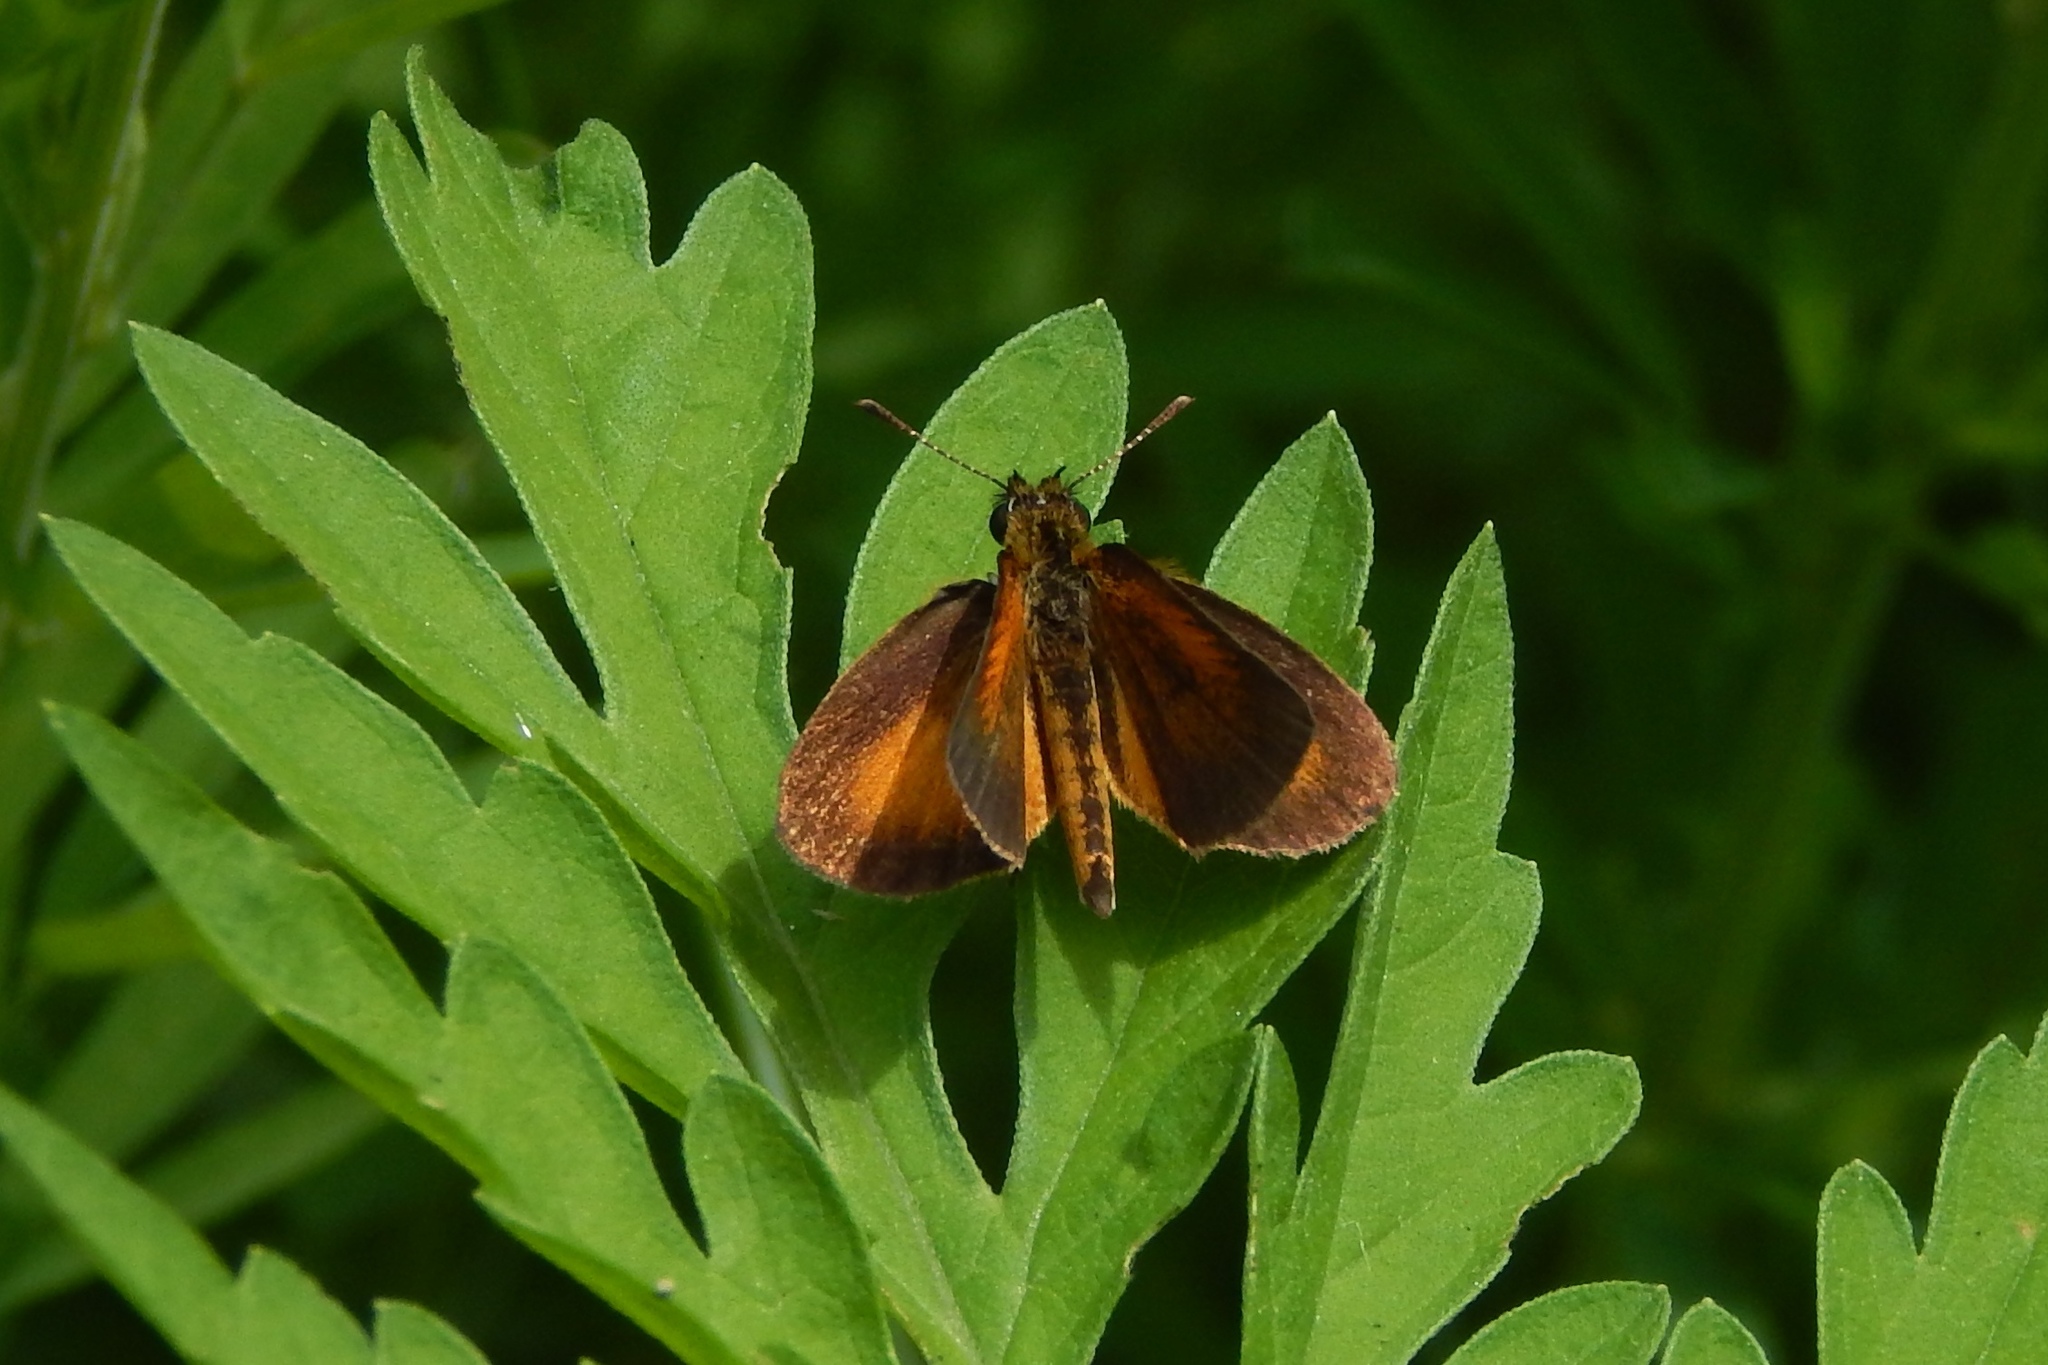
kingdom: Animalia
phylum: Arthropoda
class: Insecta
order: Lepidoptera
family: Hesperiidae
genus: Ancyloxypha
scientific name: Ancyloxypha numitor
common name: Least skipper
